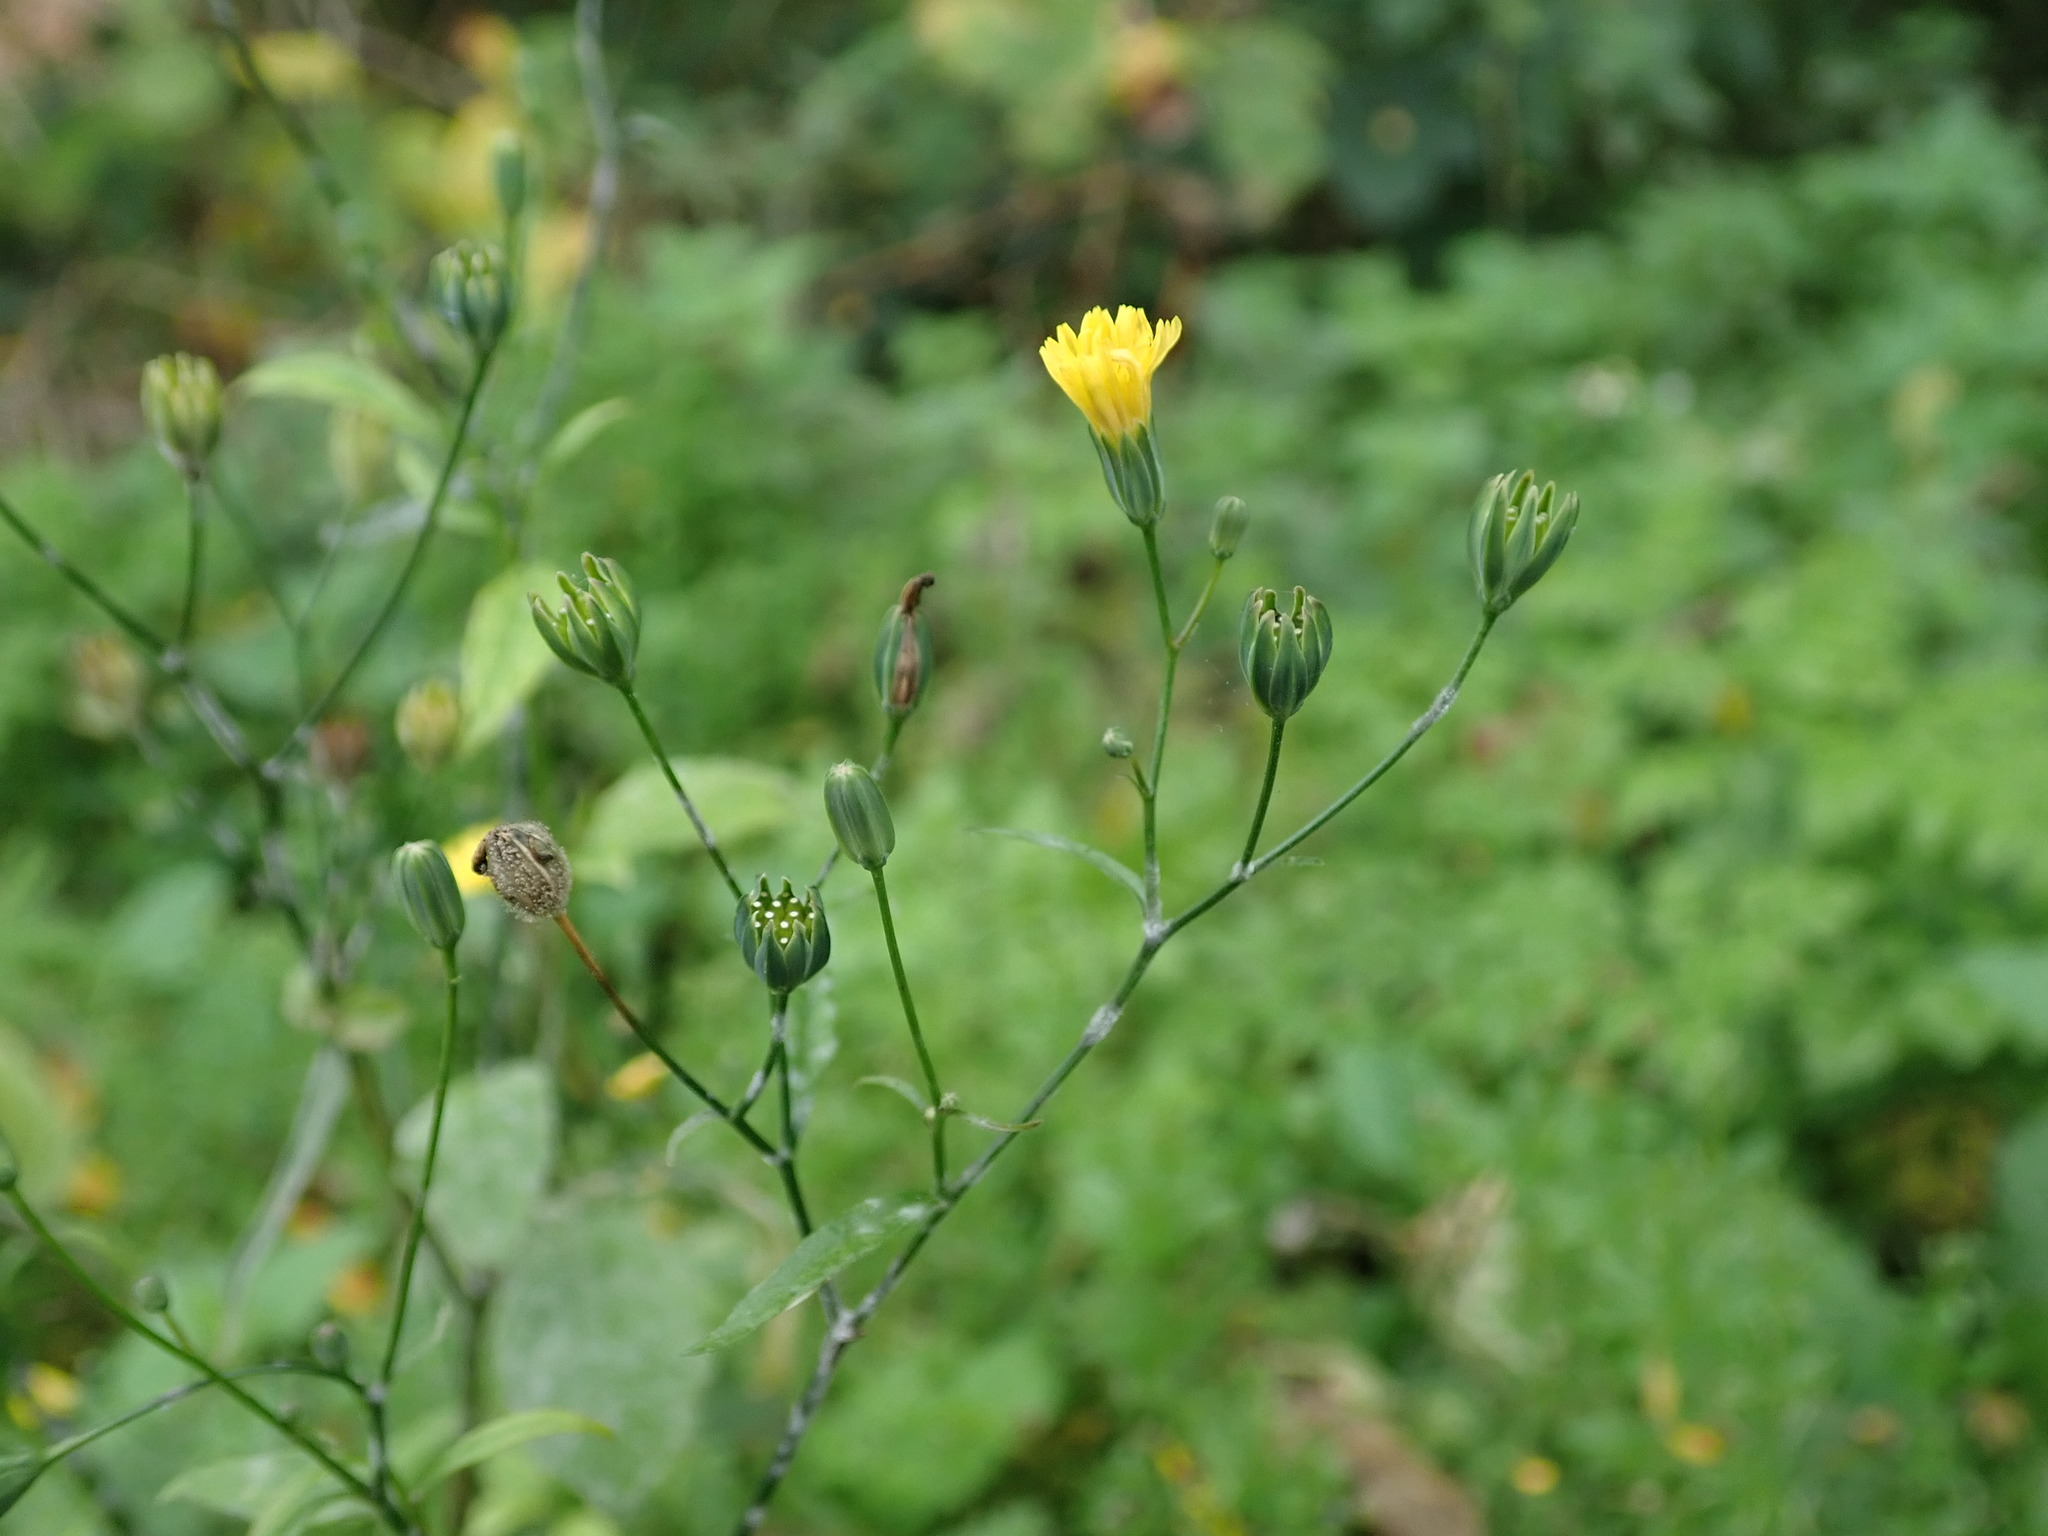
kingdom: Plantae
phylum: Tracheophyta
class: Magnoliopsida
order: Asterales
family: Asteraceae
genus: Lapsana
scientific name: Lapsana communis
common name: Nipplewort
